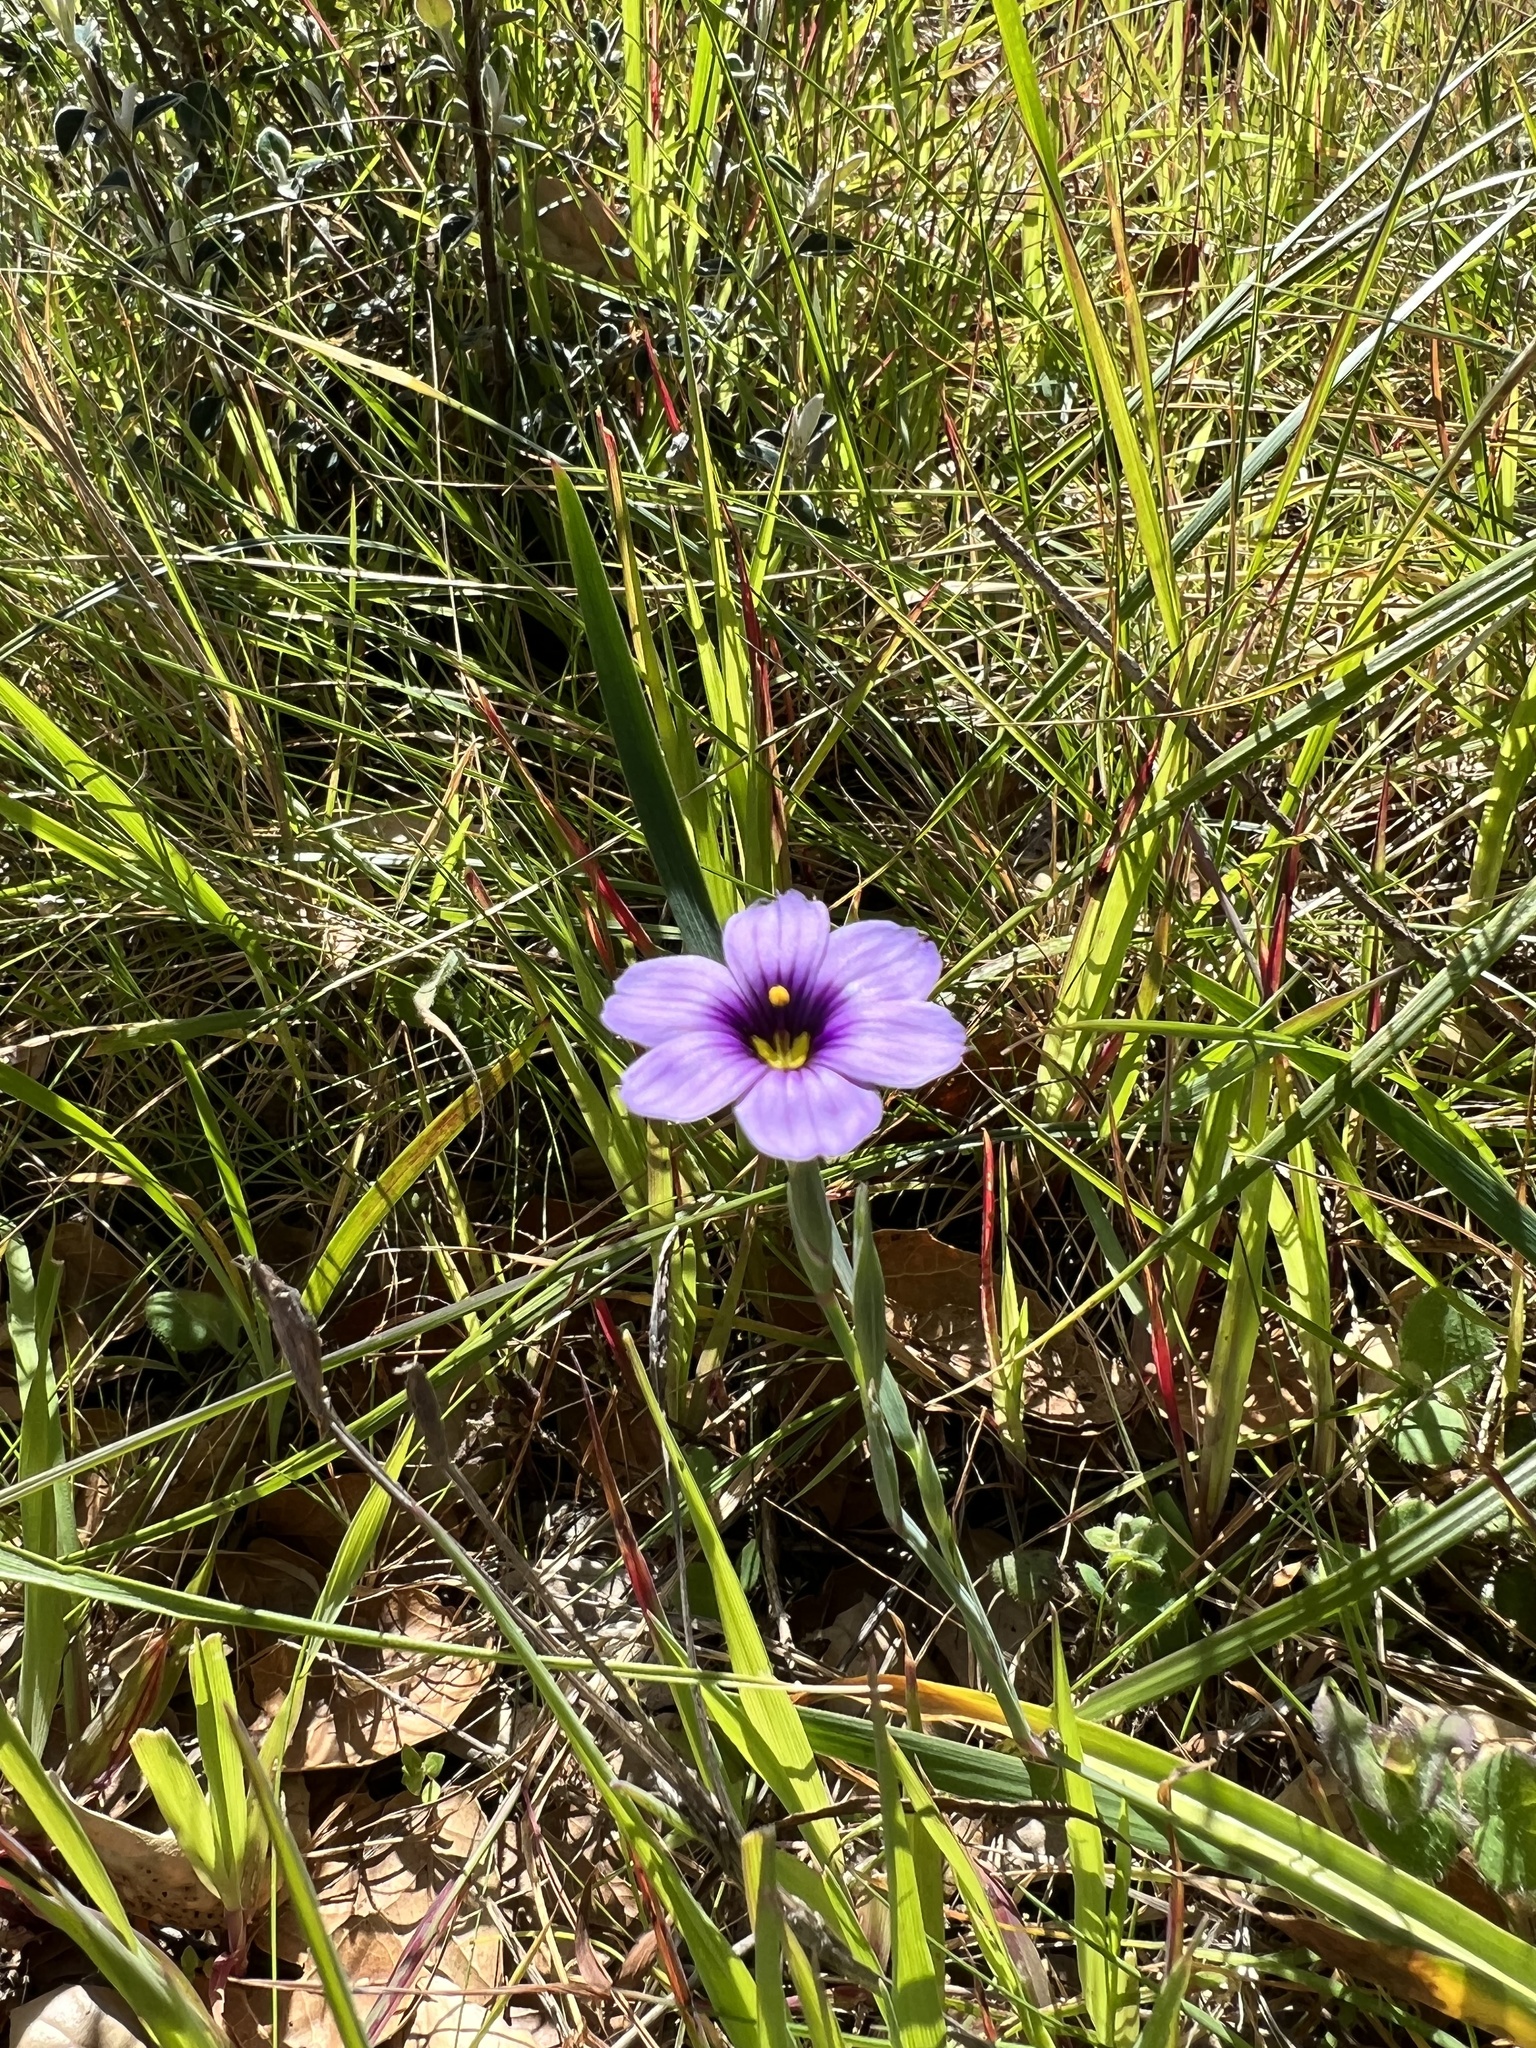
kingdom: Plantae
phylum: Tracheophyta
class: Liliopsida
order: Asparagales
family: Iridaceae
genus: Sisyrinchium
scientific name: Sisyrinchium bellum
